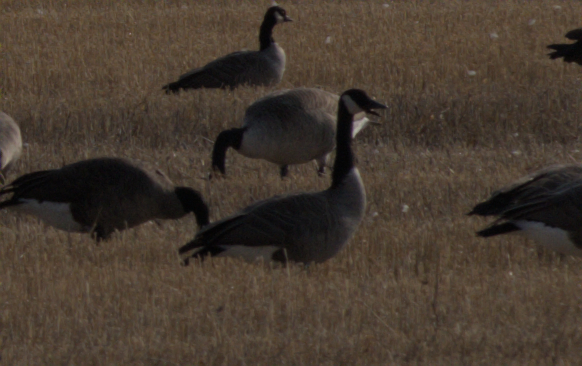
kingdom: Animalia
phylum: Chordata
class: Aves
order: Anseriformes
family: Anatidae
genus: Branta
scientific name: Branta canadensis
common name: Canada goose
